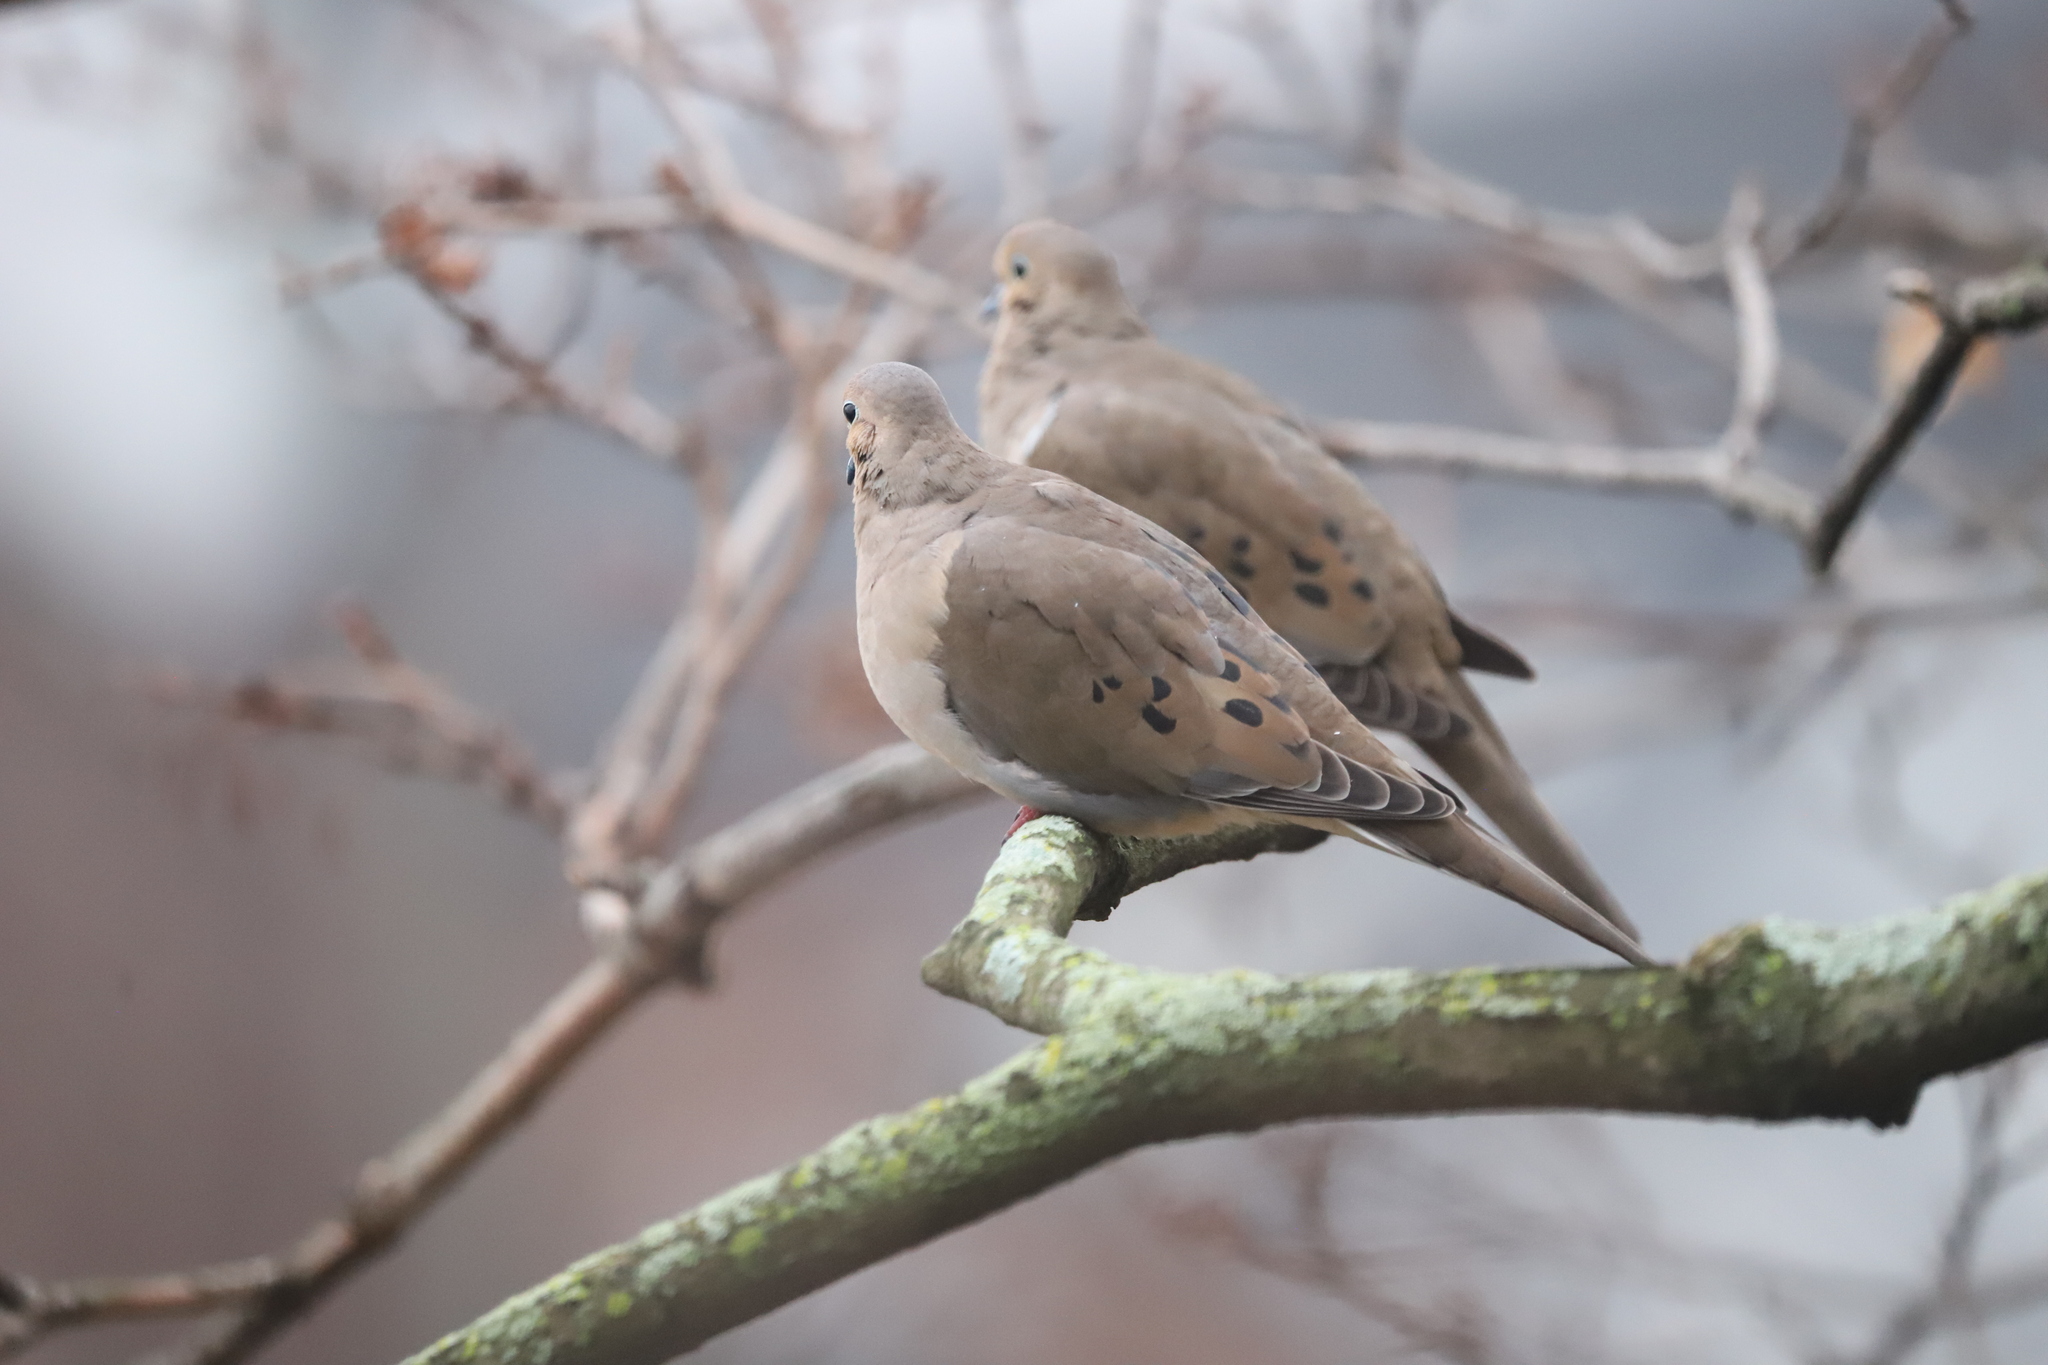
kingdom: Animalia
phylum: Chordata
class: Aves
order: Columbiformes
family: Columbidae
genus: Zenaida
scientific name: Zenaida macroura
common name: Mourning dove
